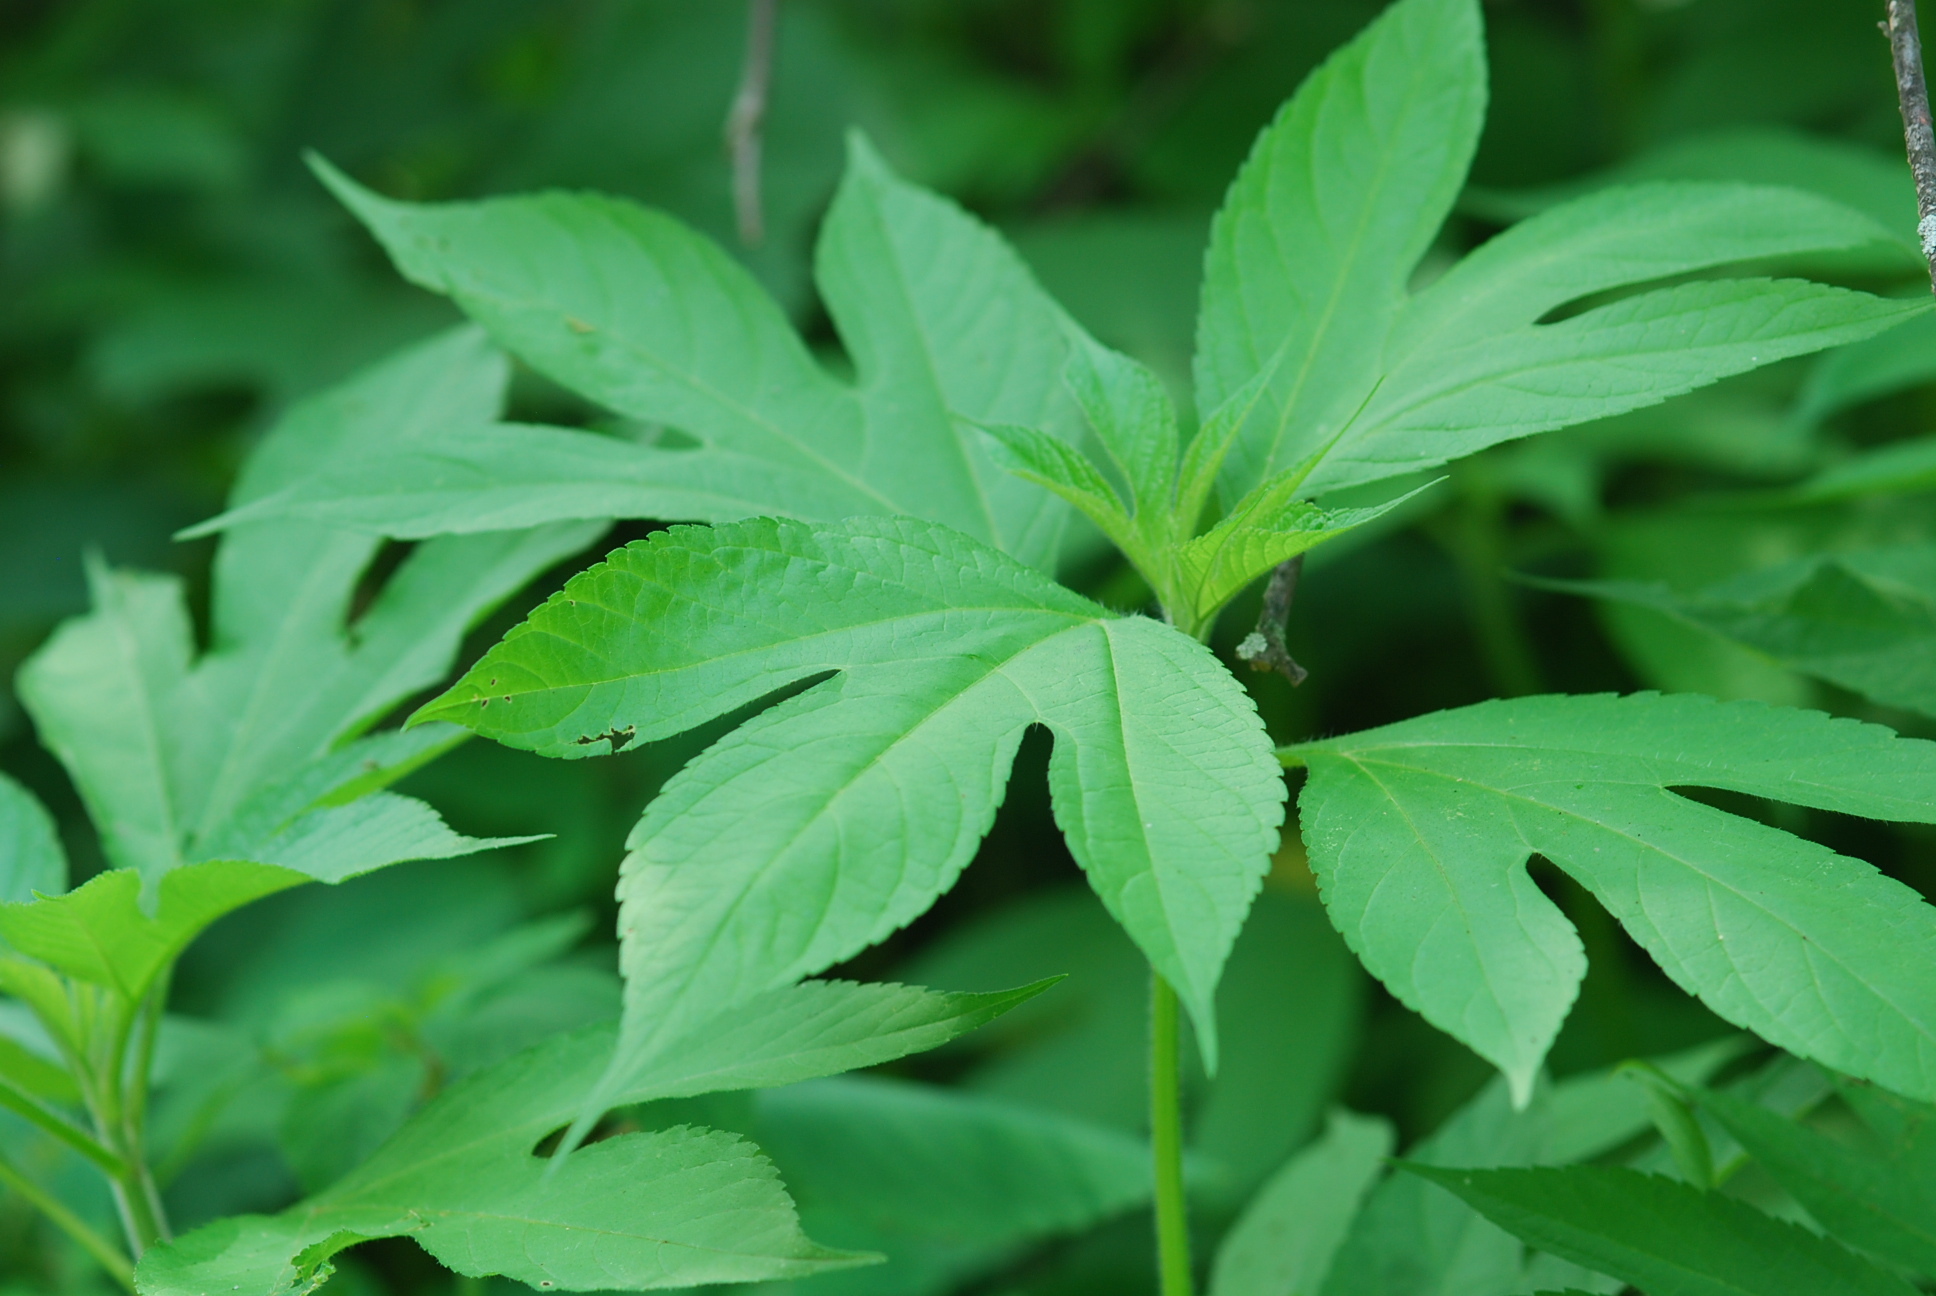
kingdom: Plantae
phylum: Tracheophyta
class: Magnoliopsida
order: Asterales
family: Asteraceae
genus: Ambrosia
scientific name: Ambrosia trifida
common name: Giant ragweed
